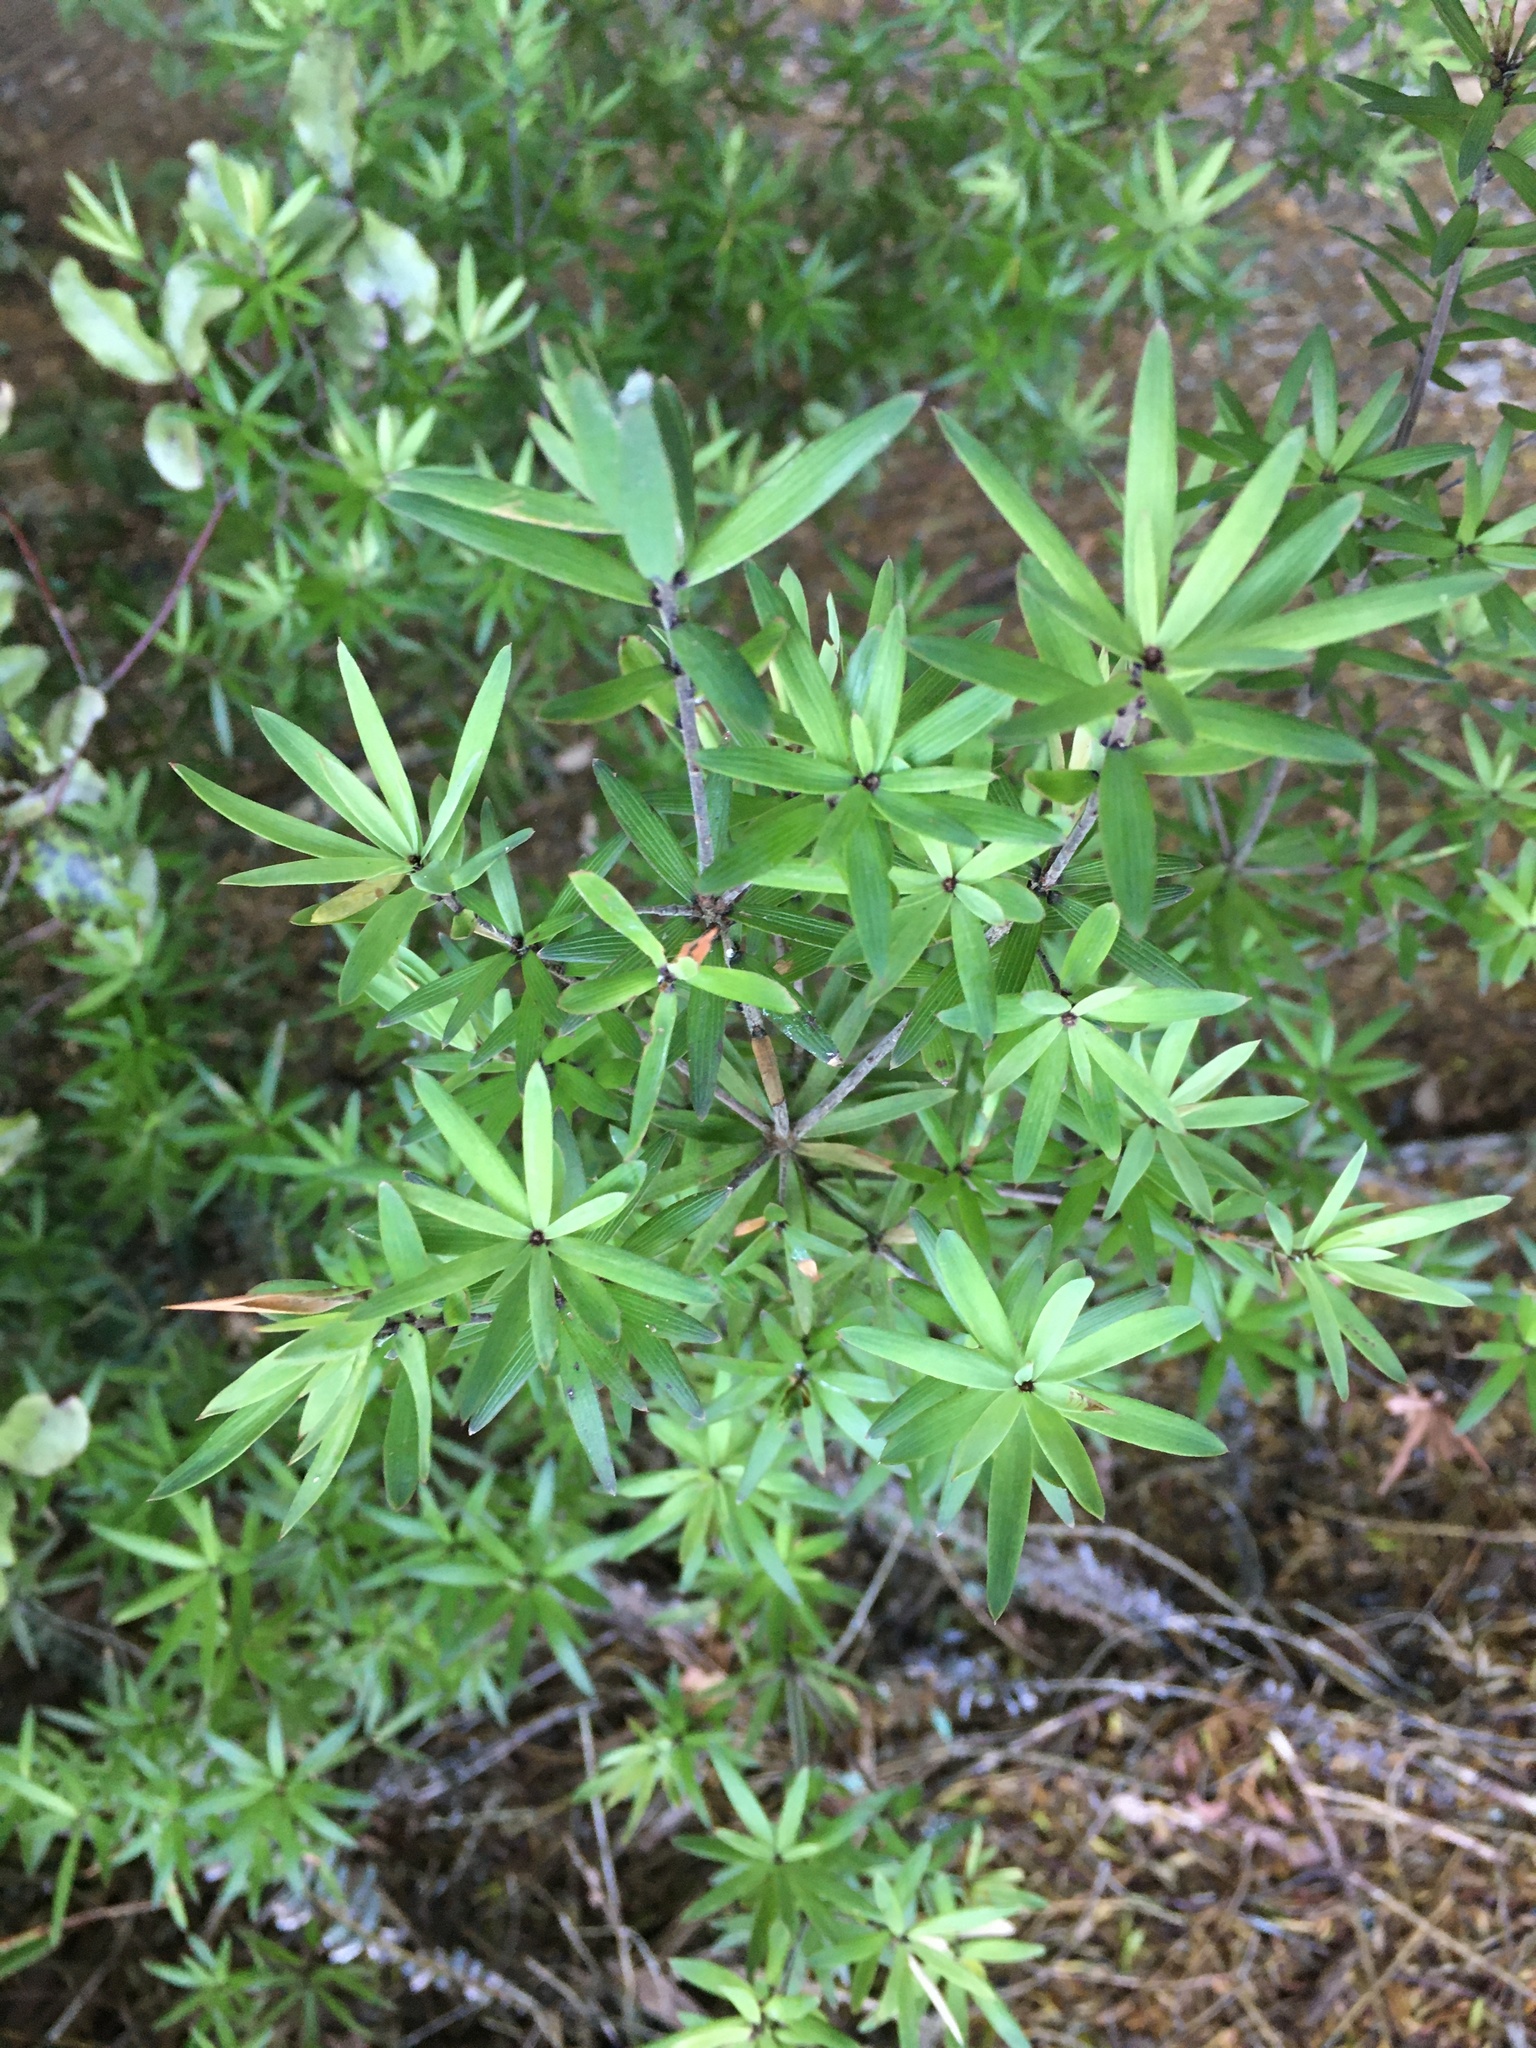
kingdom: Plantae
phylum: Tracheophyta
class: Magnoliopsida
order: Ericales
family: Ericaceae
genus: Leucopogon
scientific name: Leucopogon fasciculatus
